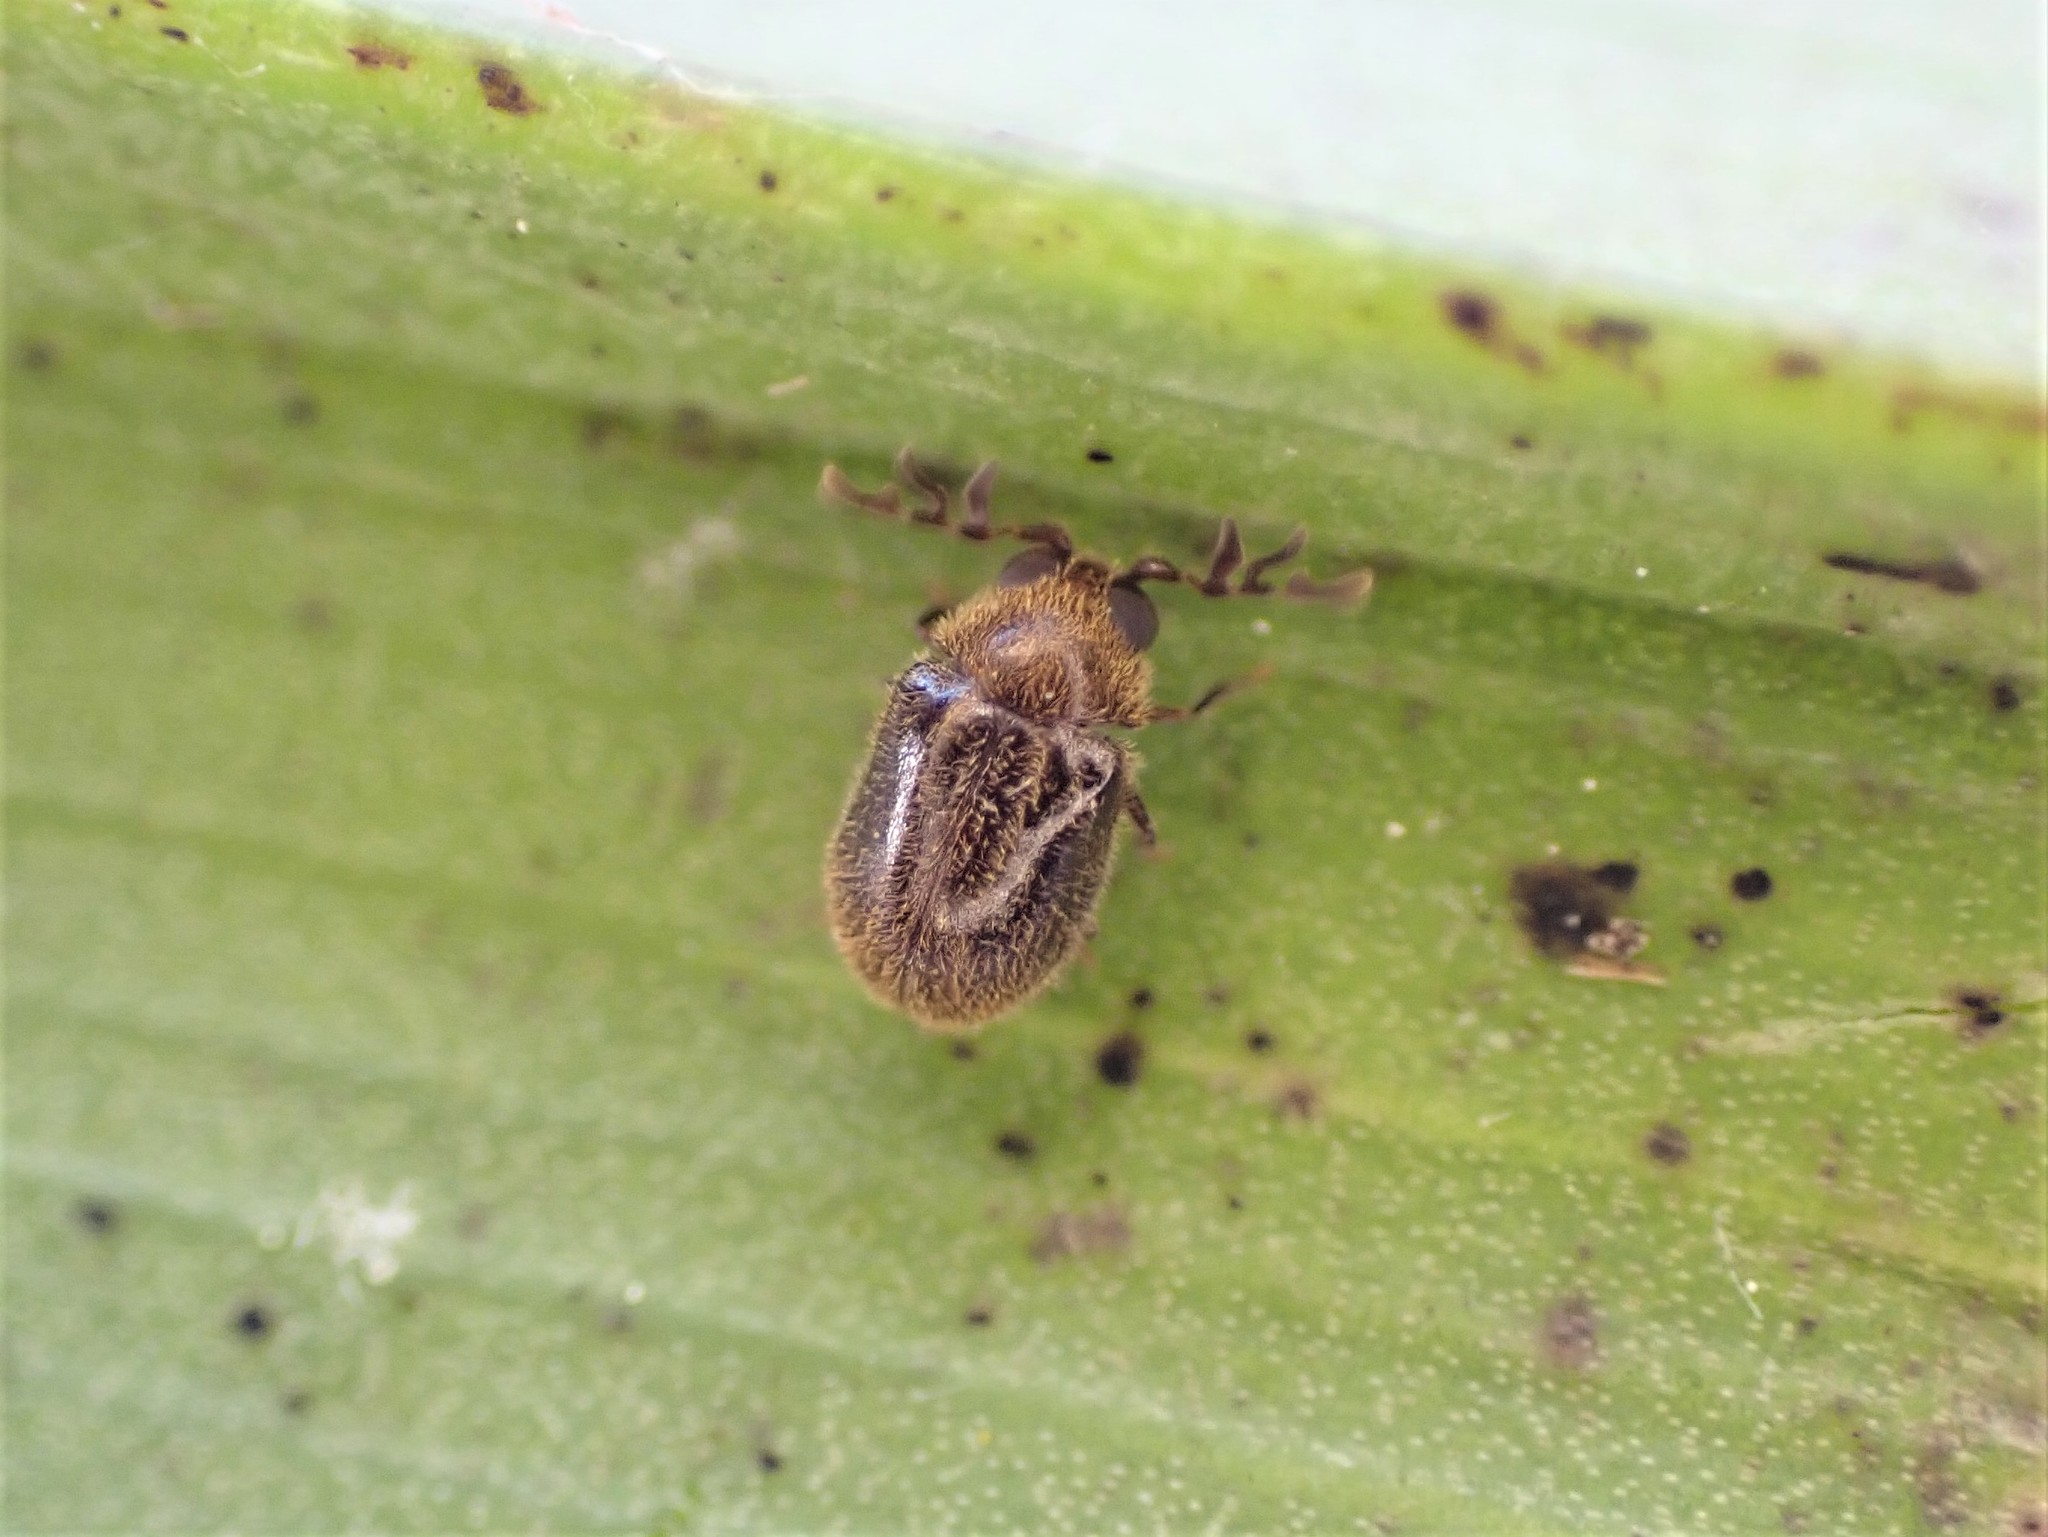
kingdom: Animalia
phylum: Arthropoda
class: Insecta
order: Coleoptera
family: Anobiidae
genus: Caenocara
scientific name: Caenocara
